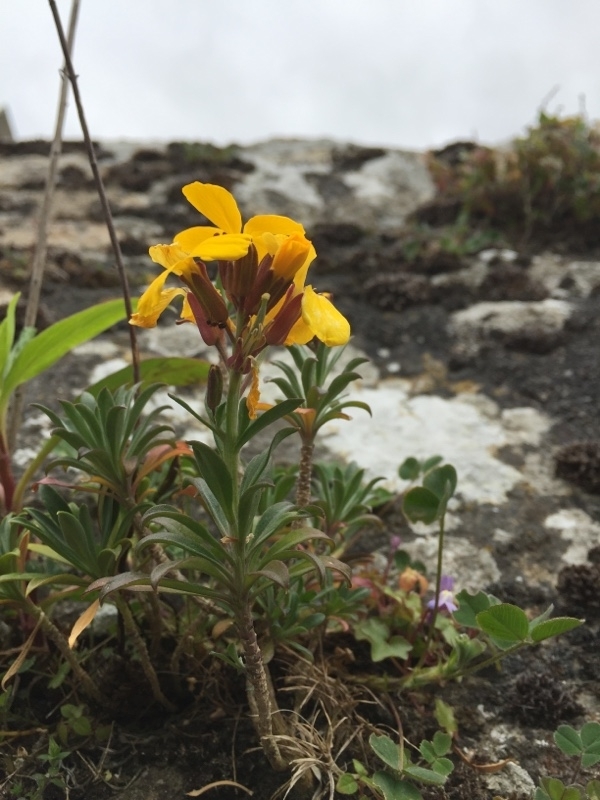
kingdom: Plantae
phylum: Tracheophyta
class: Magnoliopsida
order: Brassicales
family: Brassicaceae
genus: Erysimum
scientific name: Erysimum cheiri
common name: Wallflower
